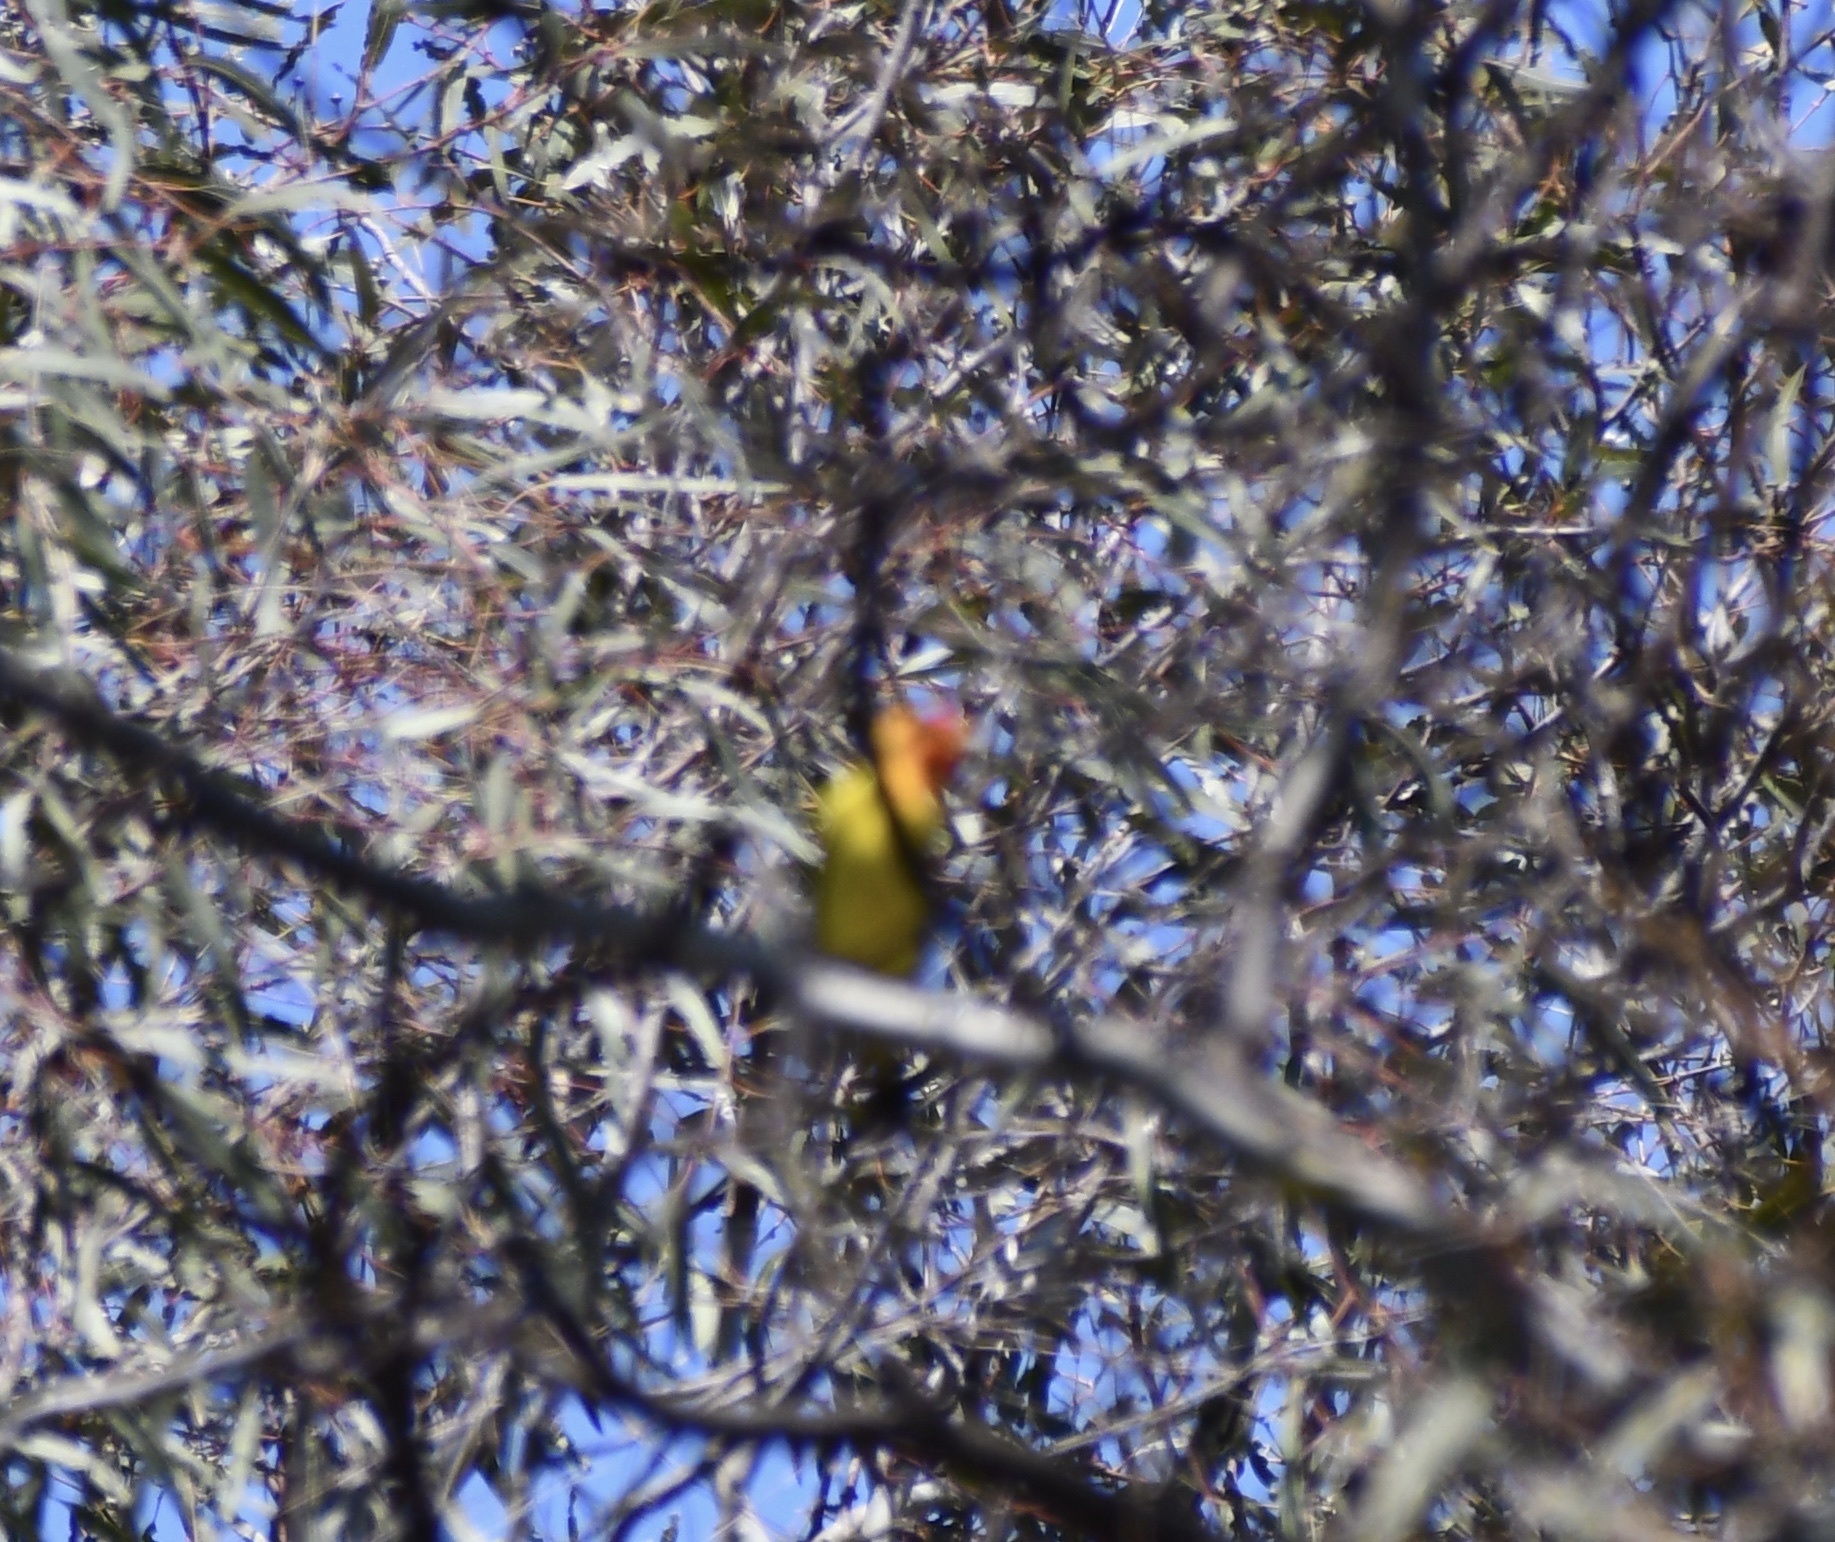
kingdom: Animalia
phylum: Chordata
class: Aves
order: Passeriformes
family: Cardinalidae
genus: Piranga
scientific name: Piranga ludoviciana
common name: Western tanager
